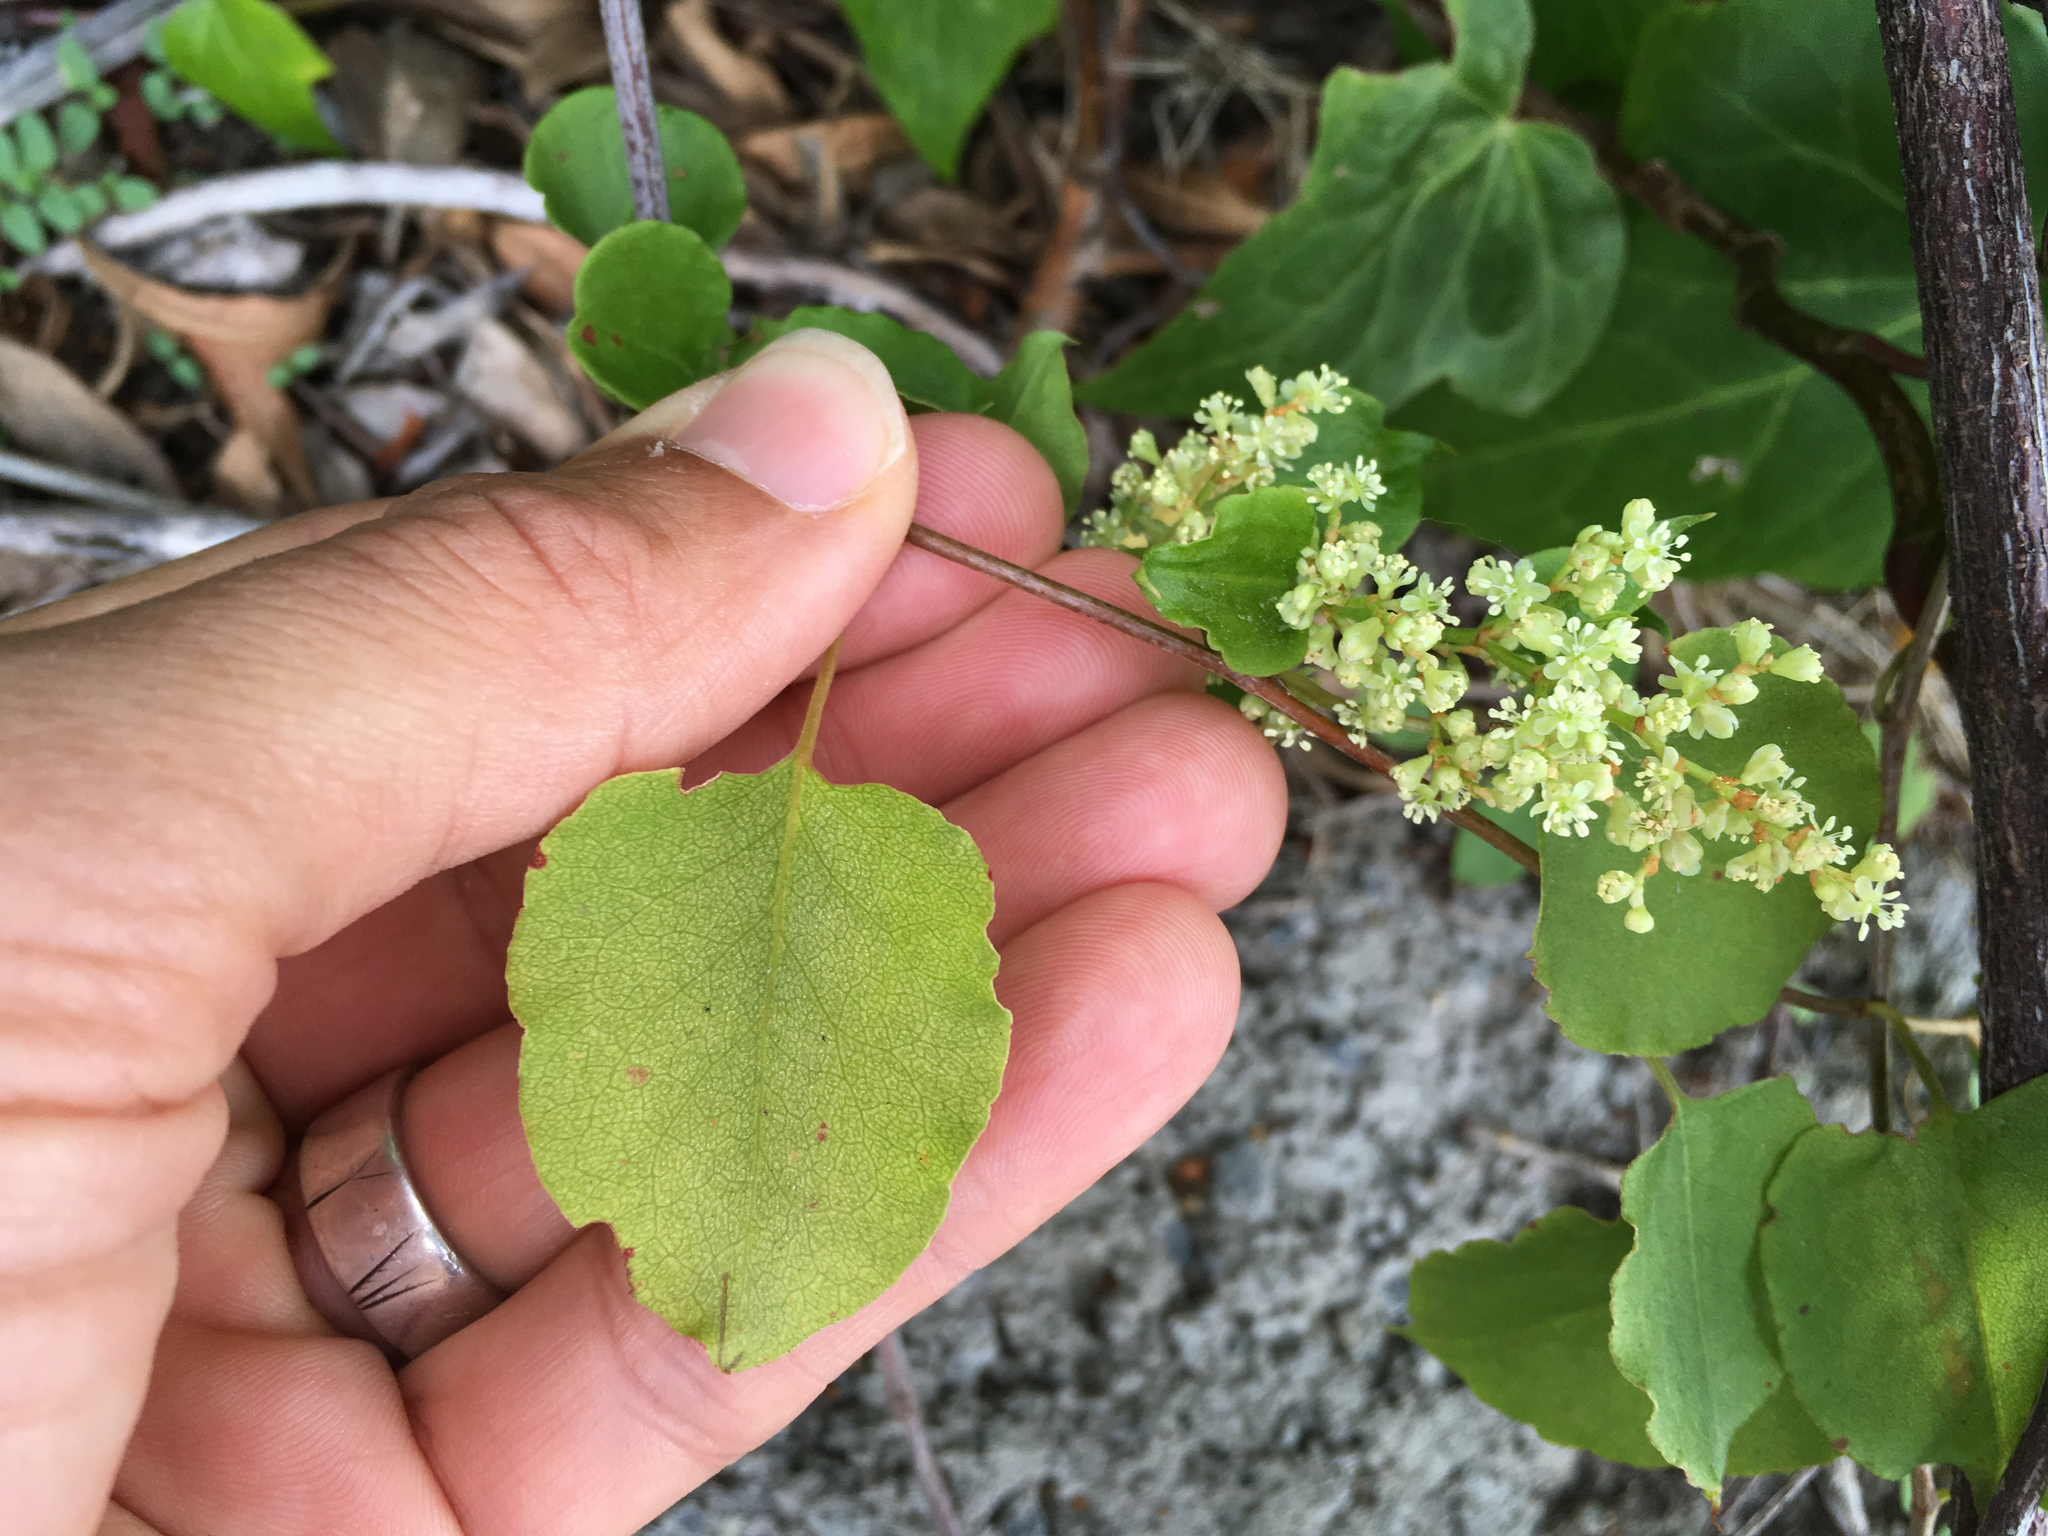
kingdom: Plantae
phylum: Tracheophyta
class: Magnoliopsida
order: Caryophyllales
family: Polygonaceae
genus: Muehlenbeckia
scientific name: Muehlenbeckia australis
